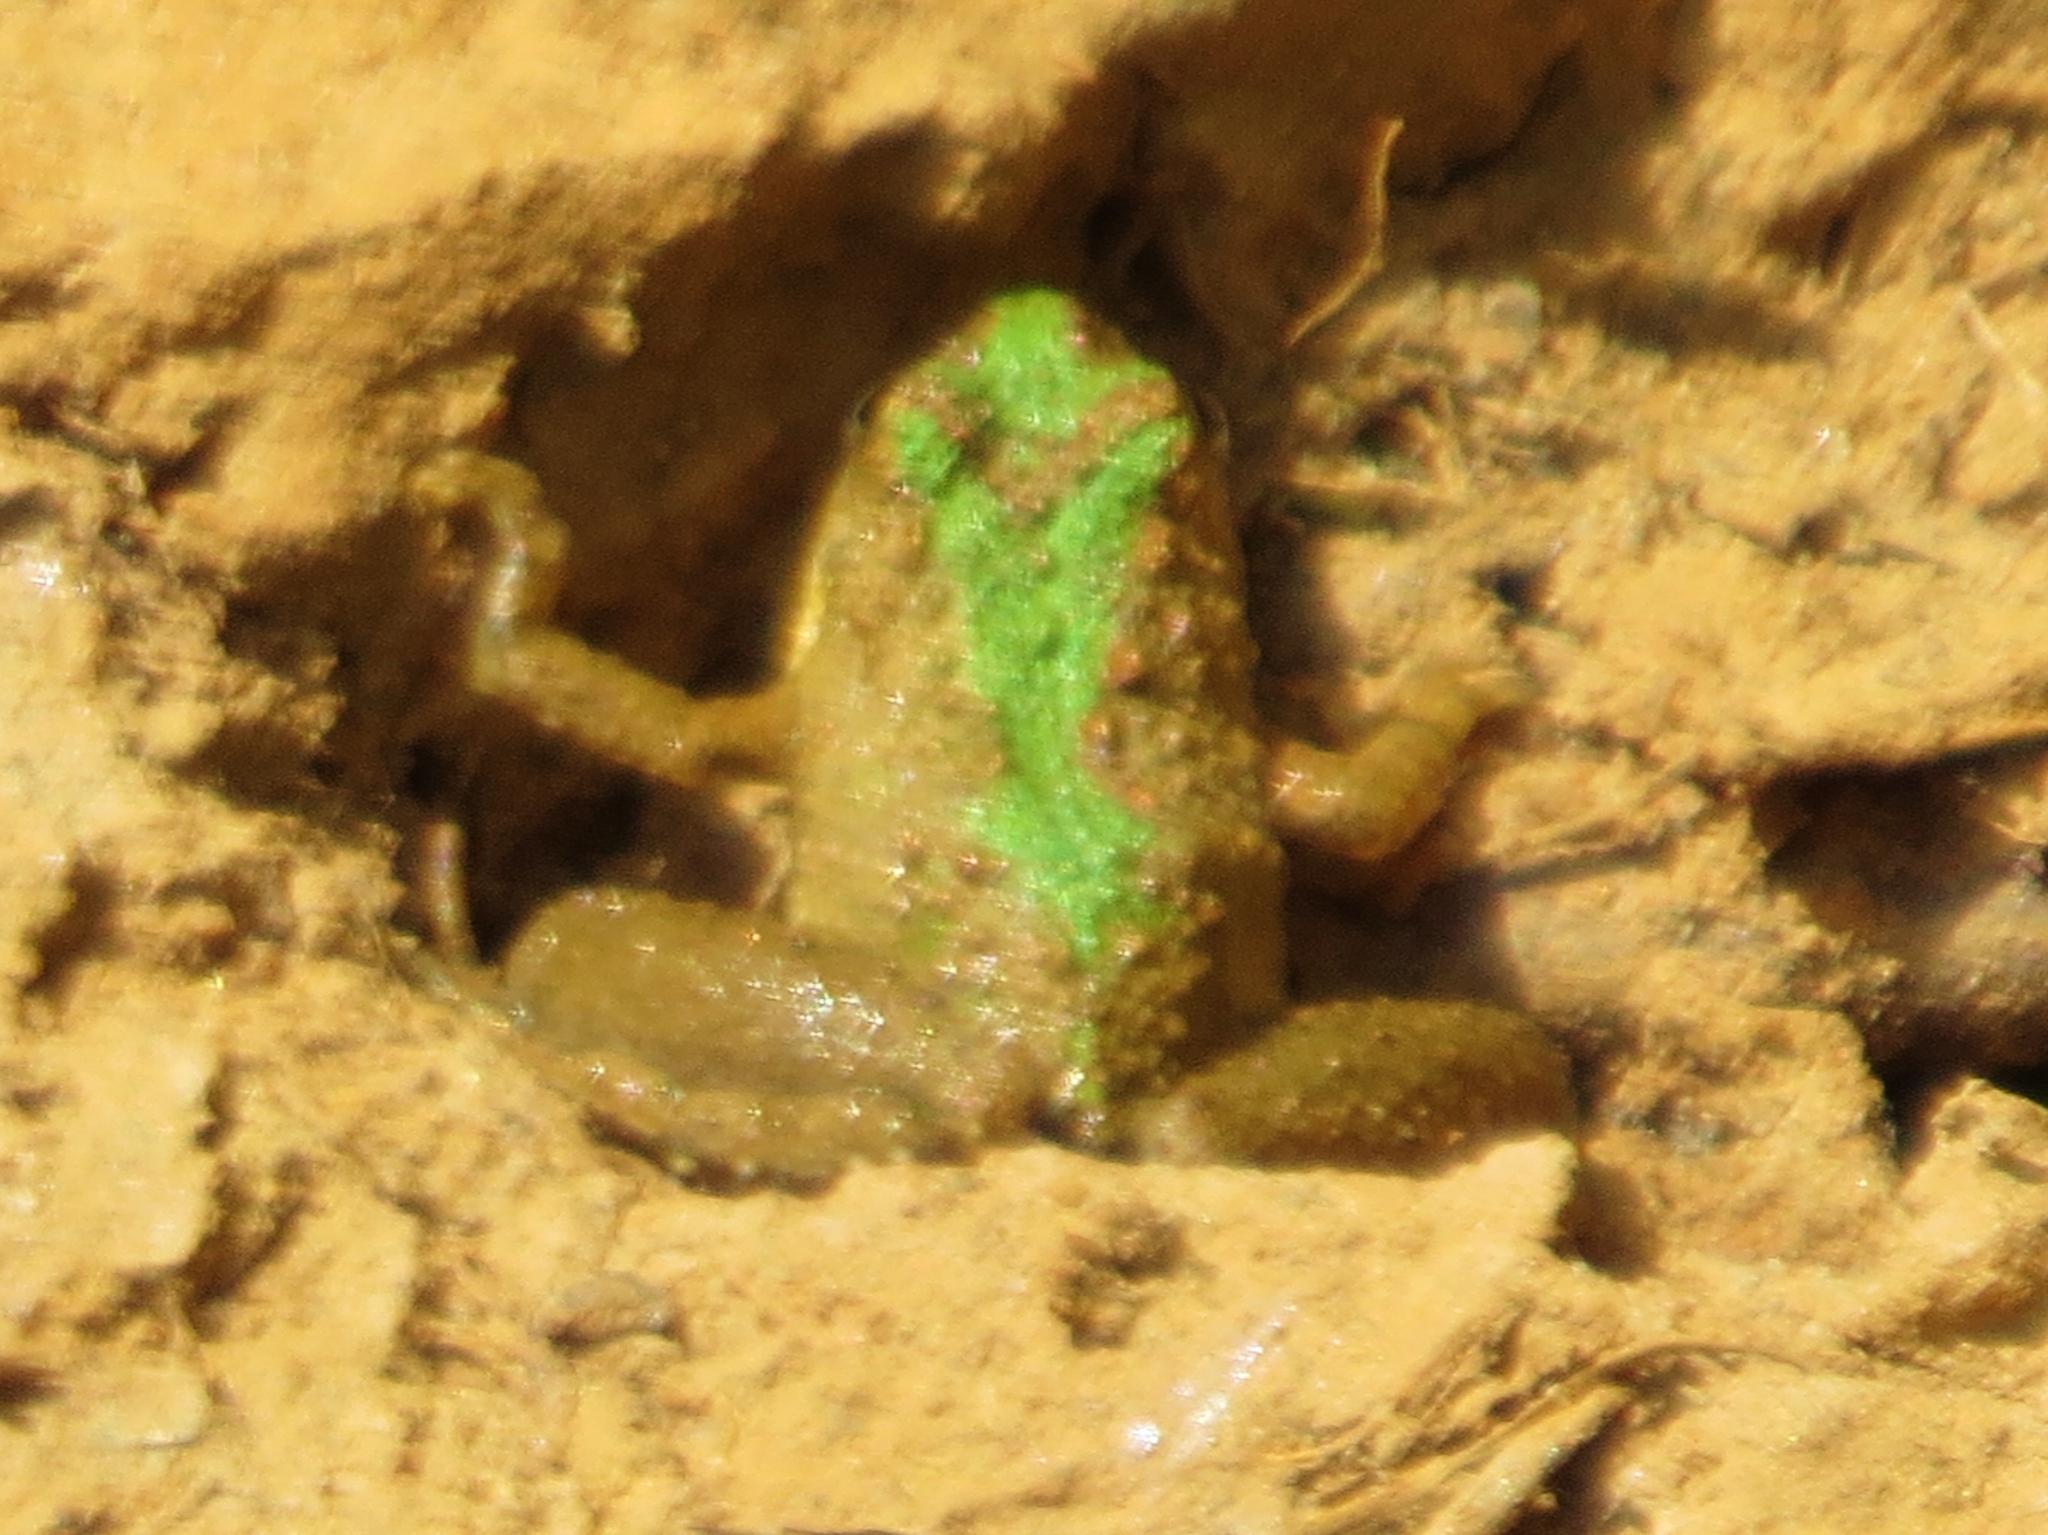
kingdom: Animalia
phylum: Chordata
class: Amphibia
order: Anura
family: Hylidae
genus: Acris
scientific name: Acris crepitans
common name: Northern cricket frog
